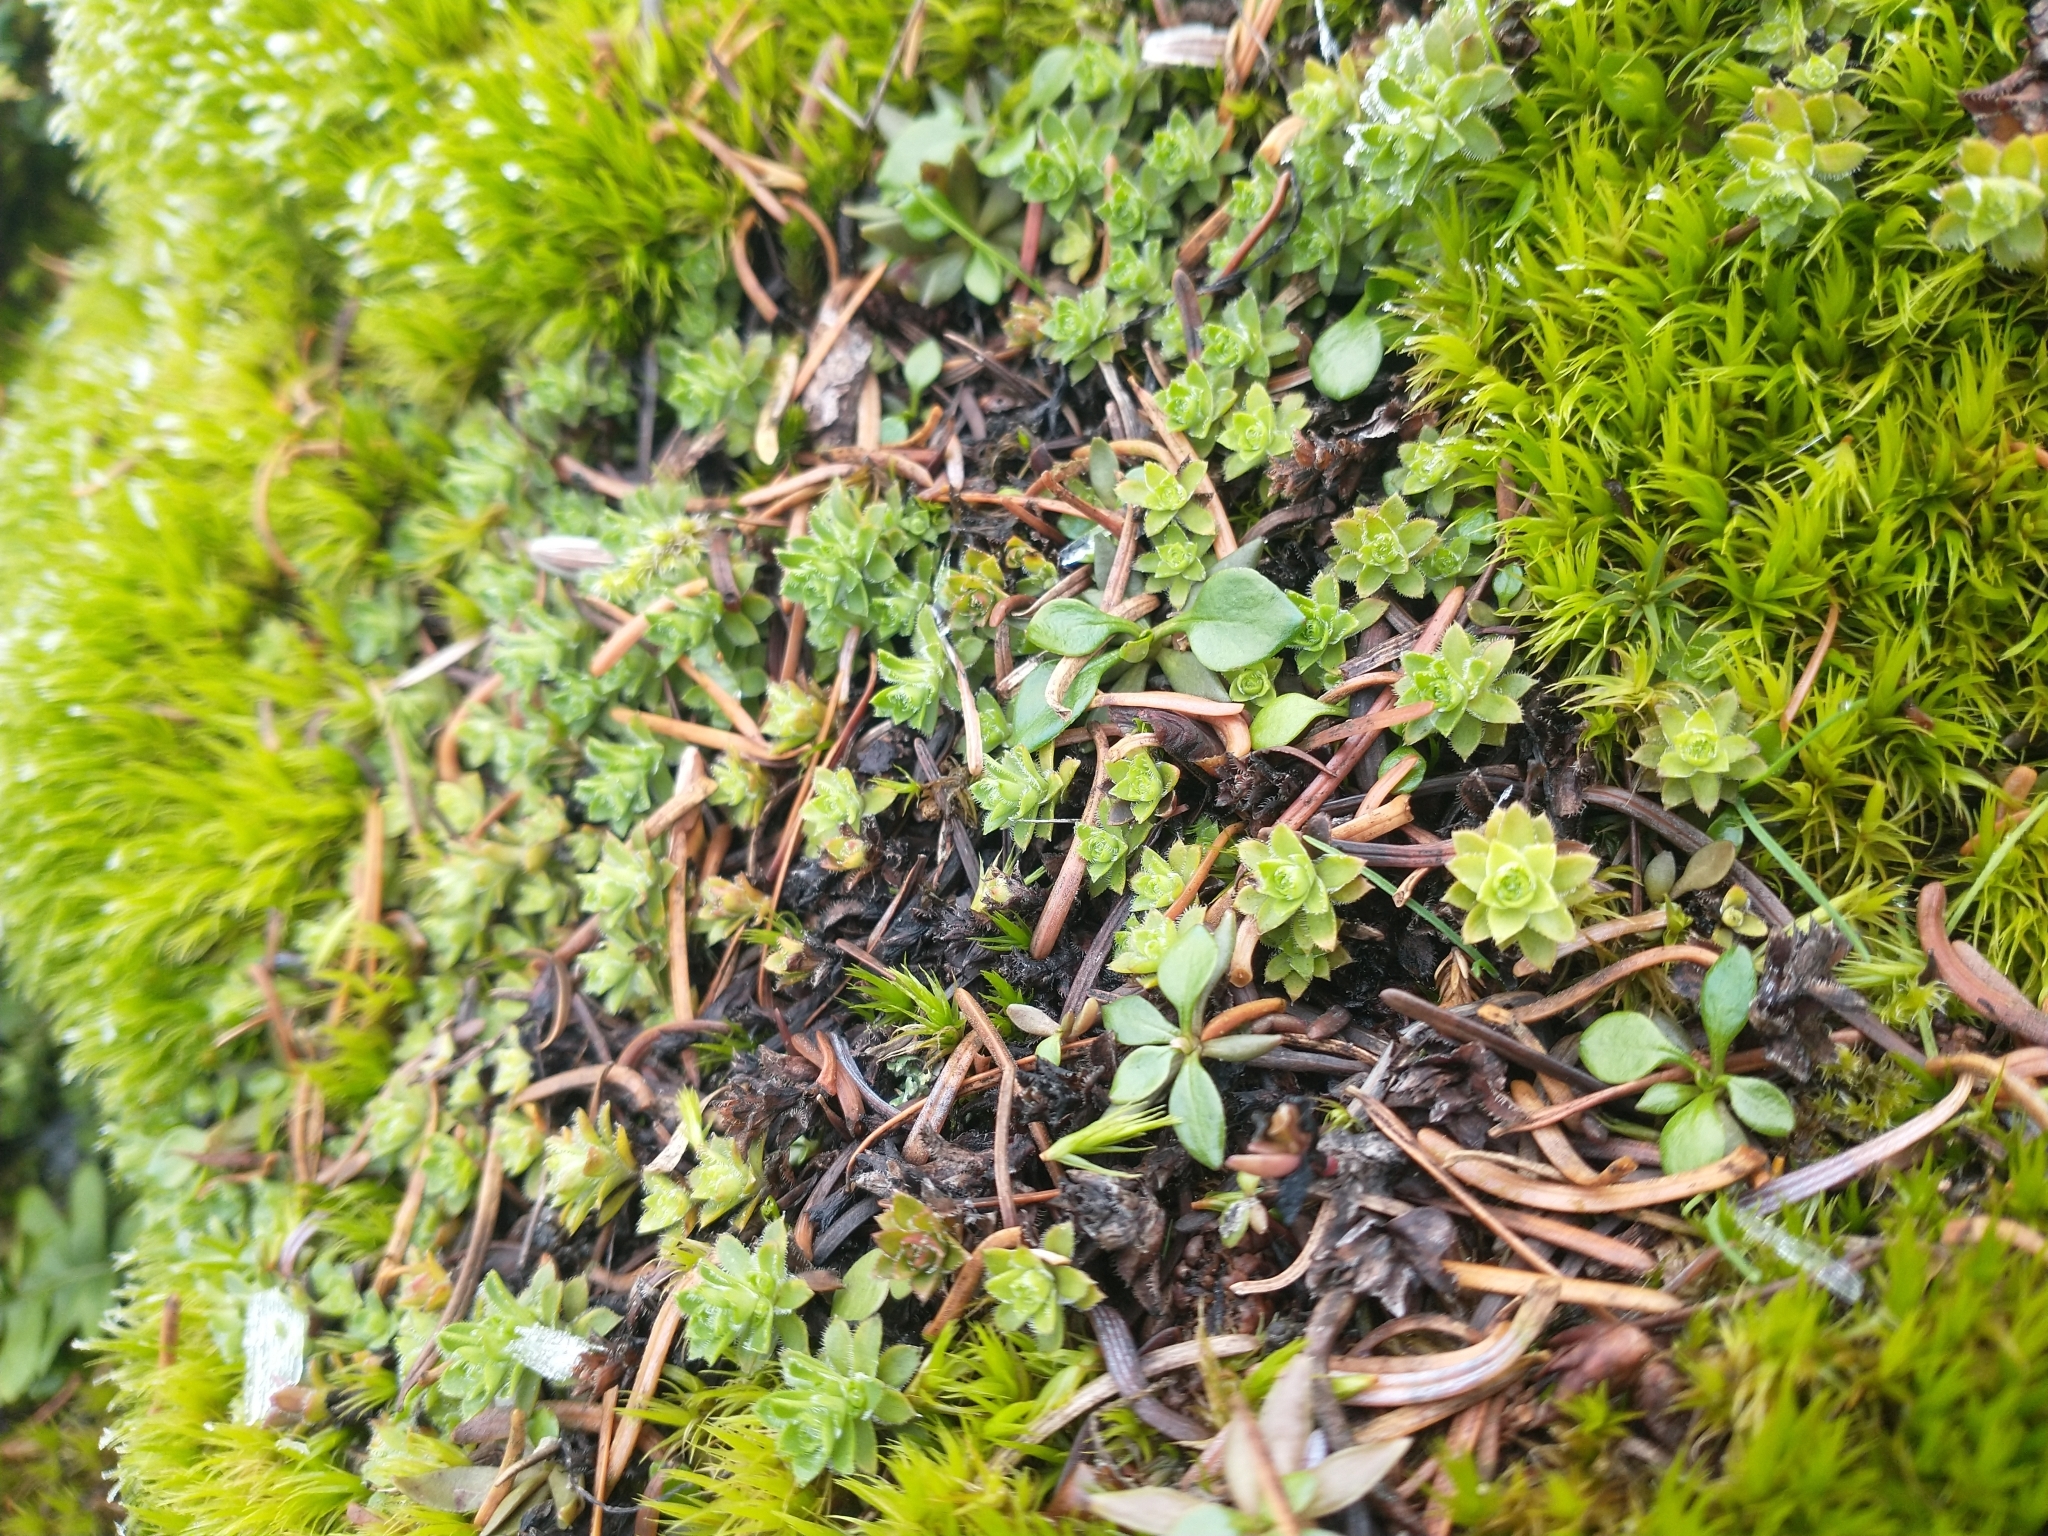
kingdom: Plantae
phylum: Tracheophyta
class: Magnoliopsida
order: Saxifragales
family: Saxifragaceae
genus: Saxifraga
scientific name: Saxifraga vespertina
